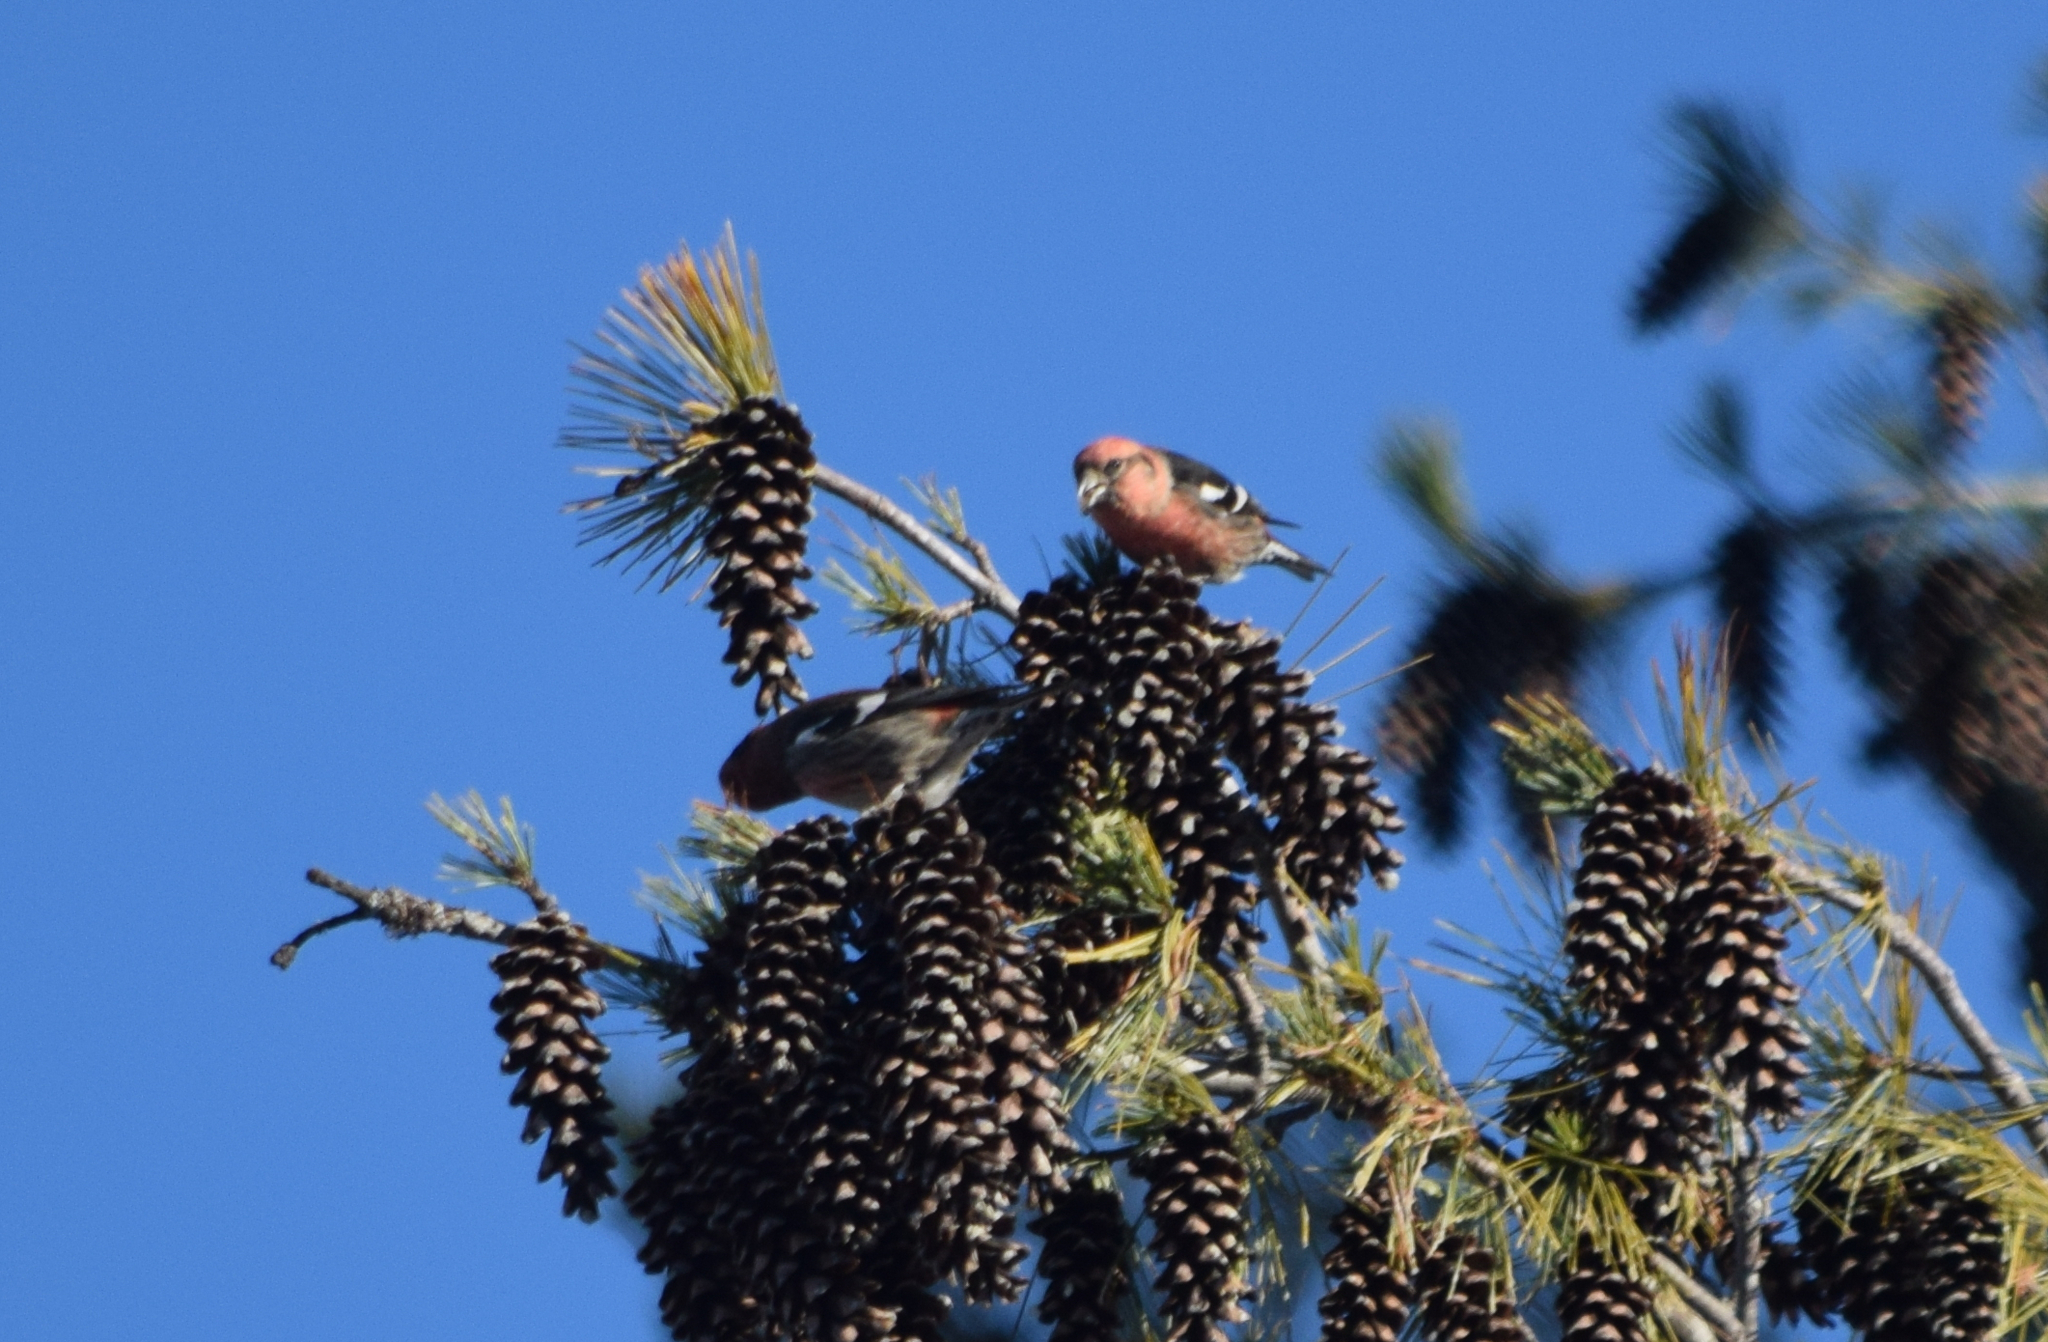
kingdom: Animalia
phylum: Chordata
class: Aves
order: Passeriformes
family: Fringillidae
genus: Loxia
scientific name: Loxia leucoptera
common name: Two-barred crossbill
